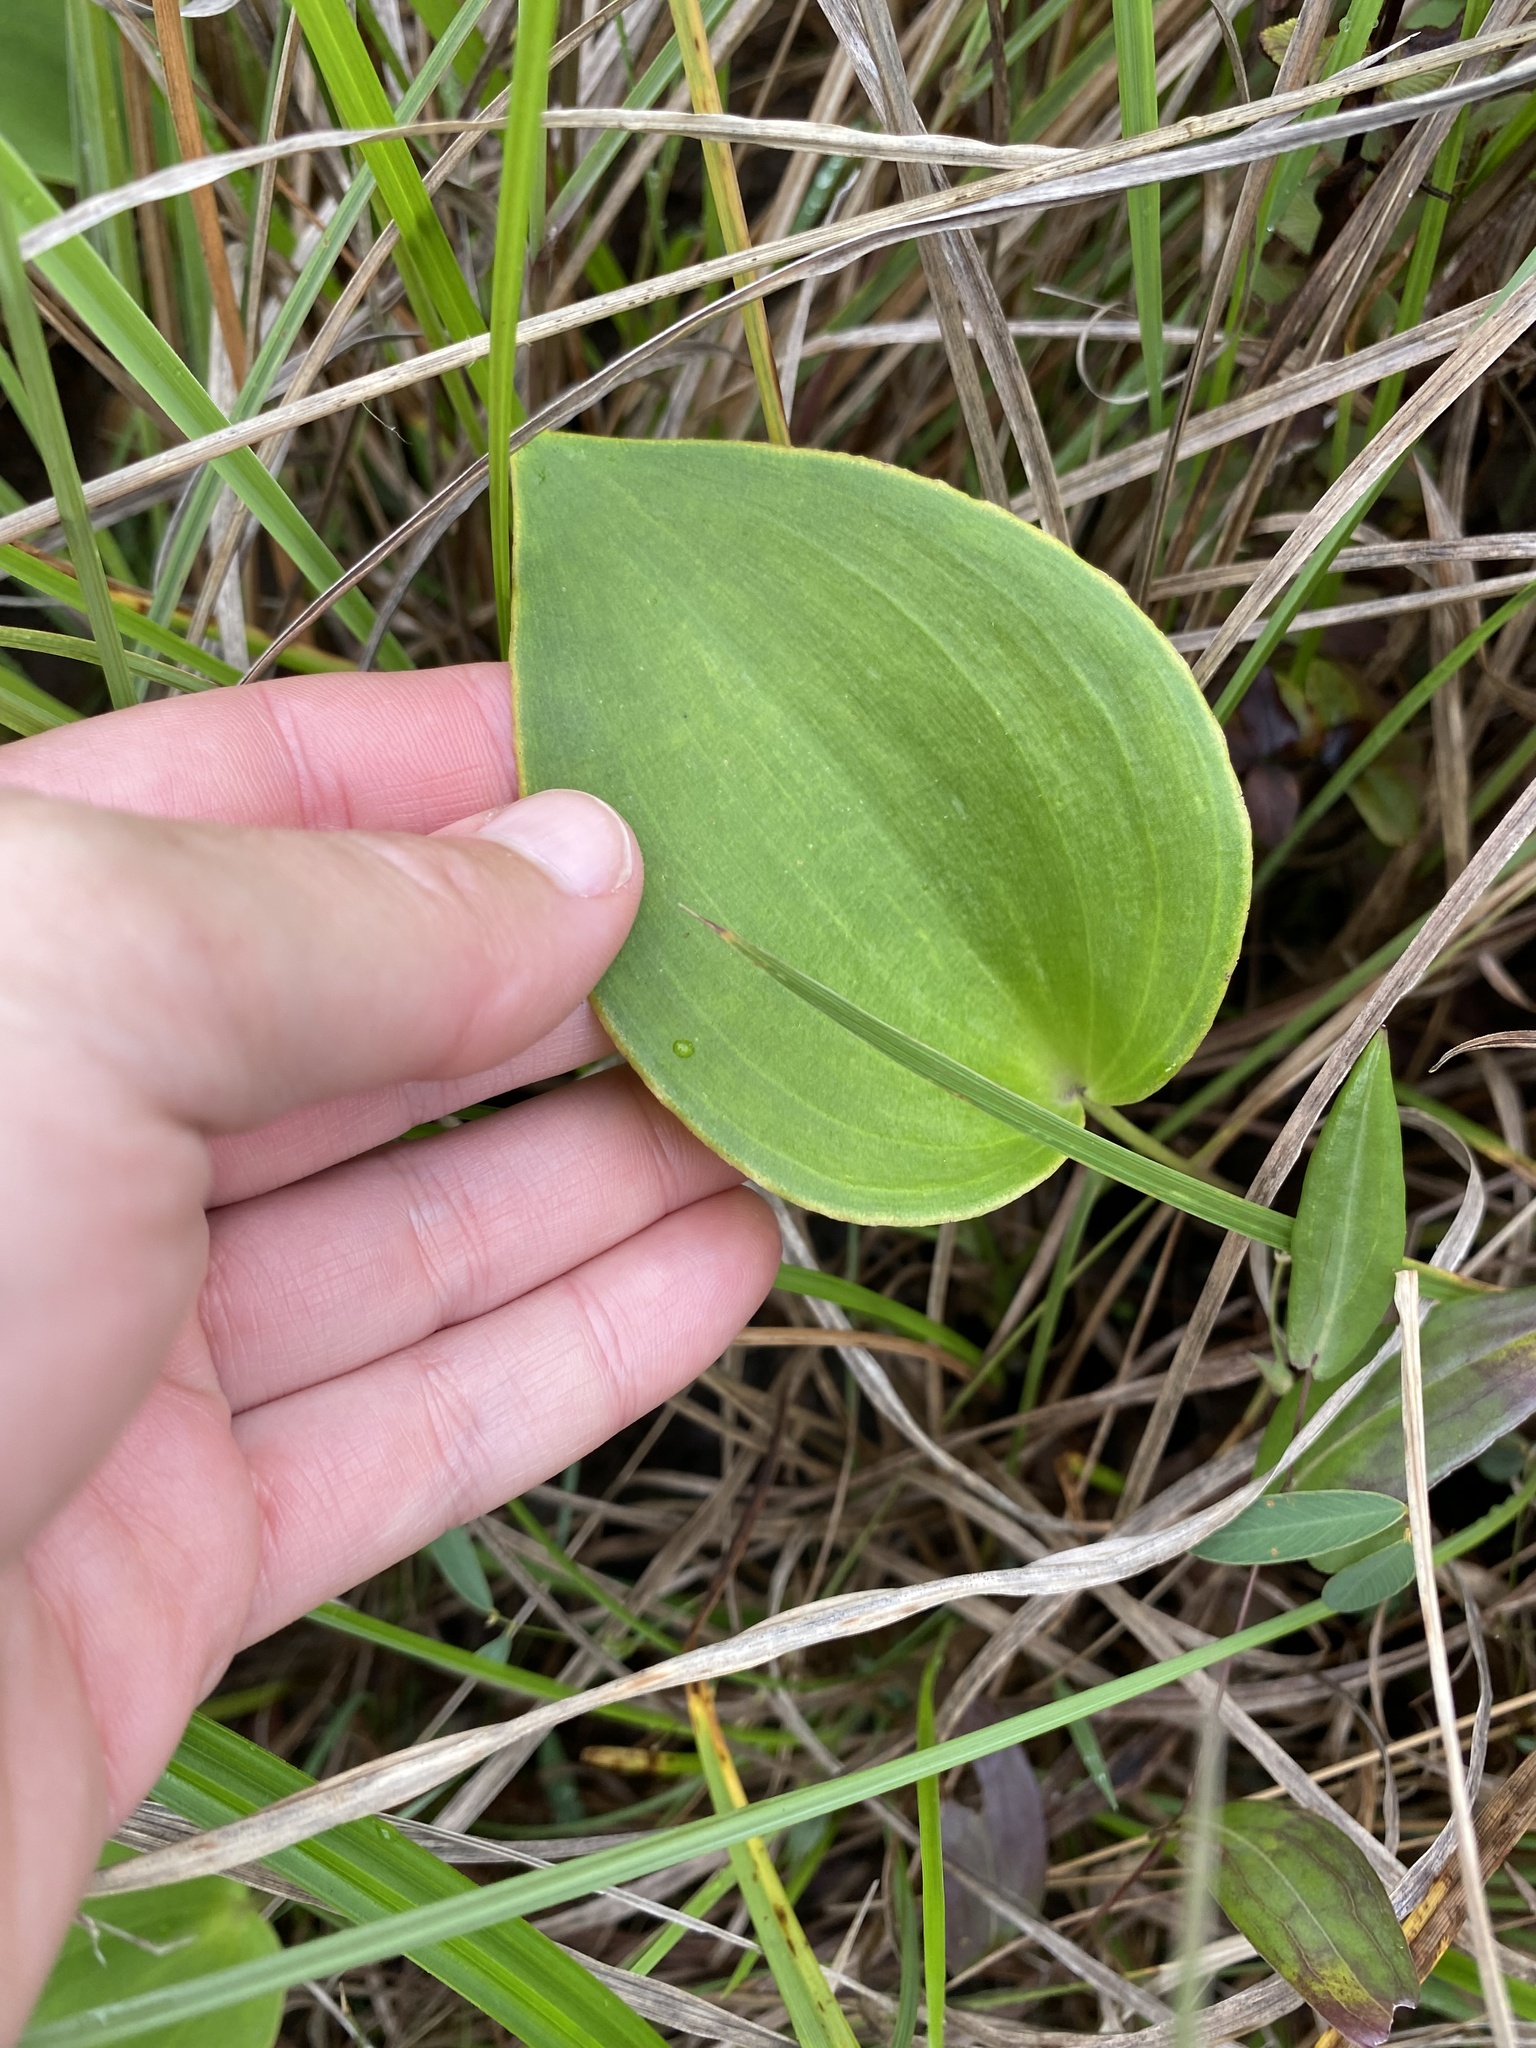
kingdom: Plantae
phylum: Tracheophyta
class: Liliopsida
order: Asparagales
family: Asparagaceae
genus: Eriospermum
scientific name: Eriospermum mackenii
